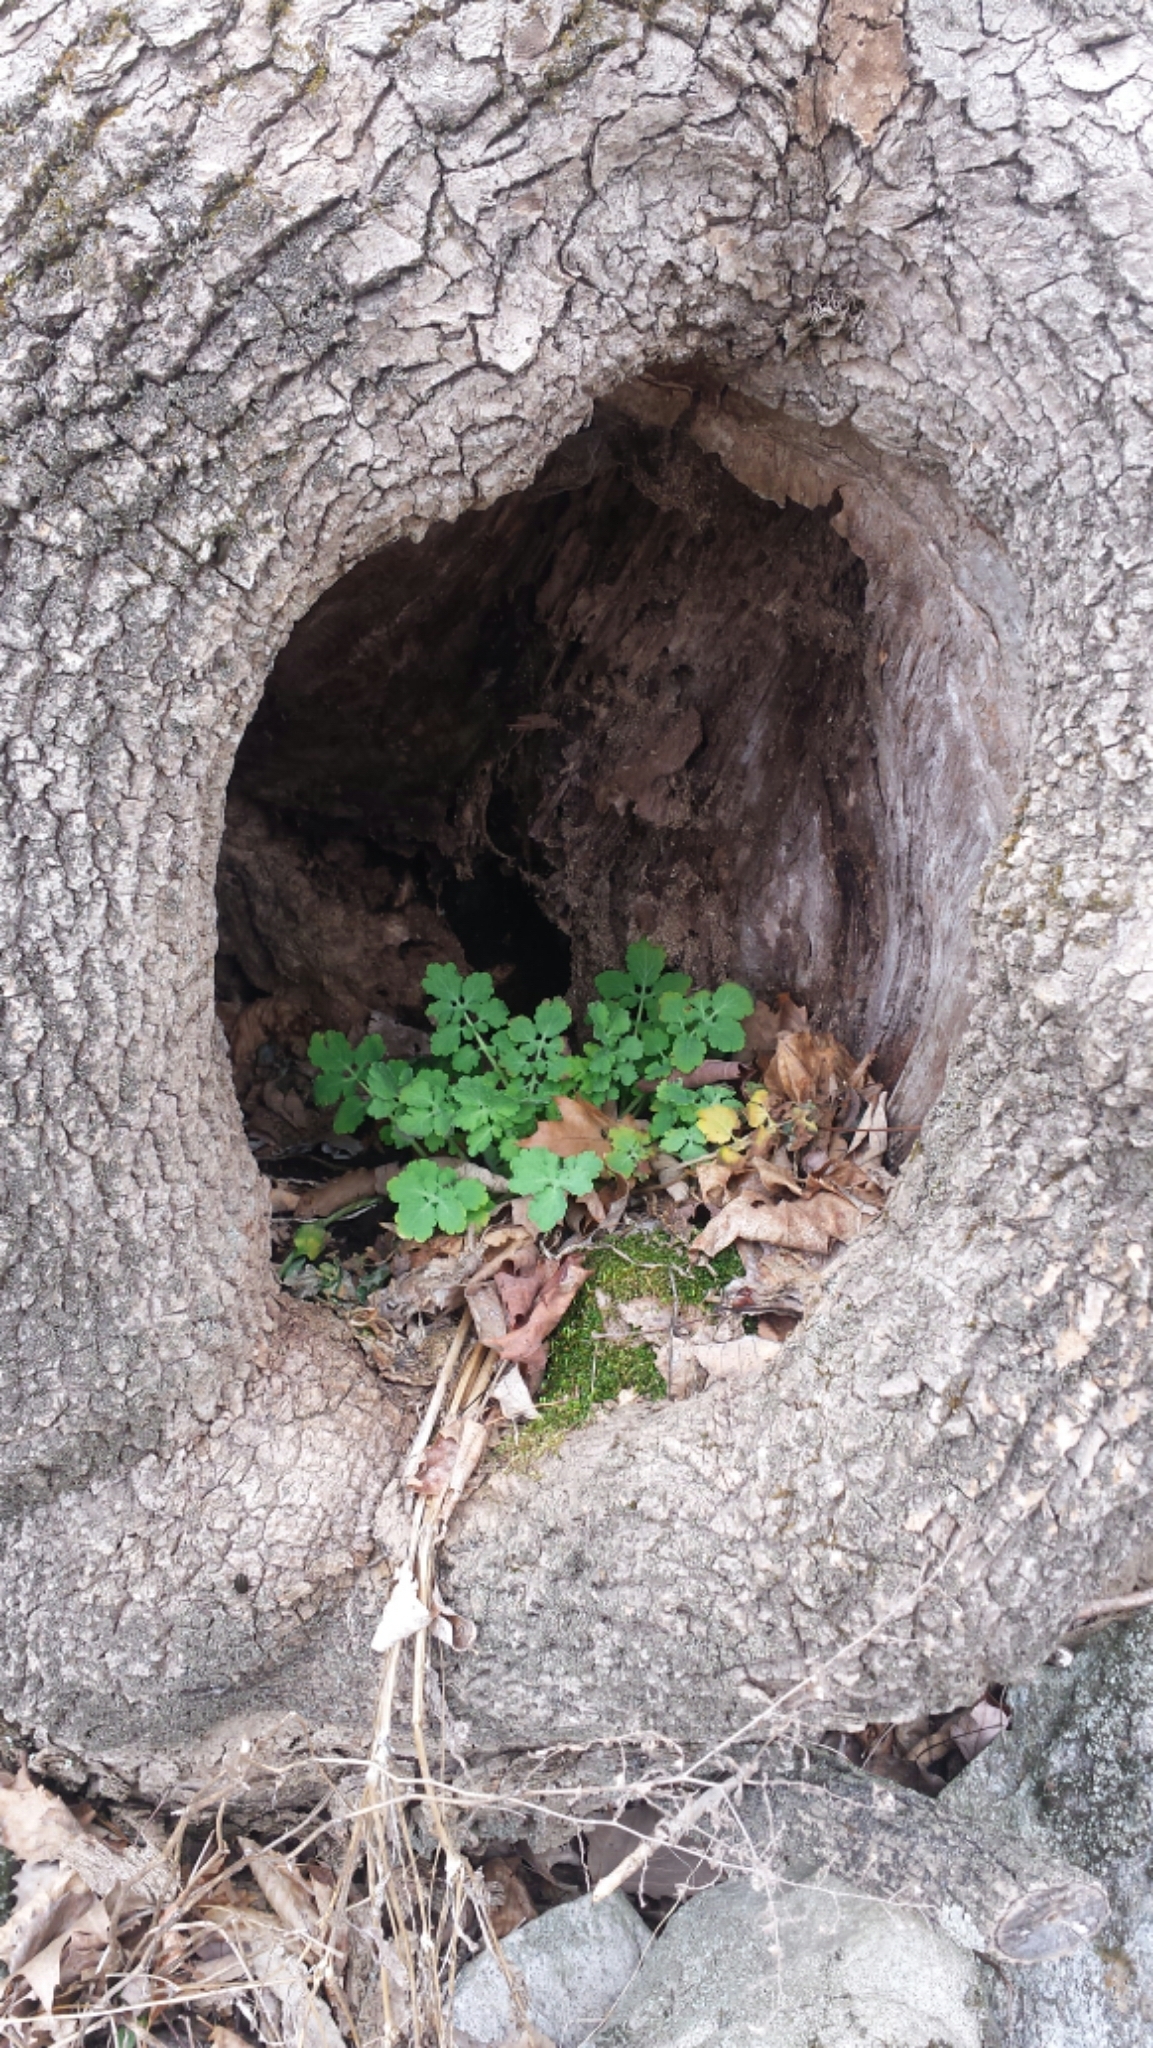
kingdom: Plantae
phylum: Tracheophyta
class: Magnoliopsida
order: Ranunculales
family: Papaveraceae
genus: Chelidonium
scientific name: Chelidonium majus
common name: Greater celandine
